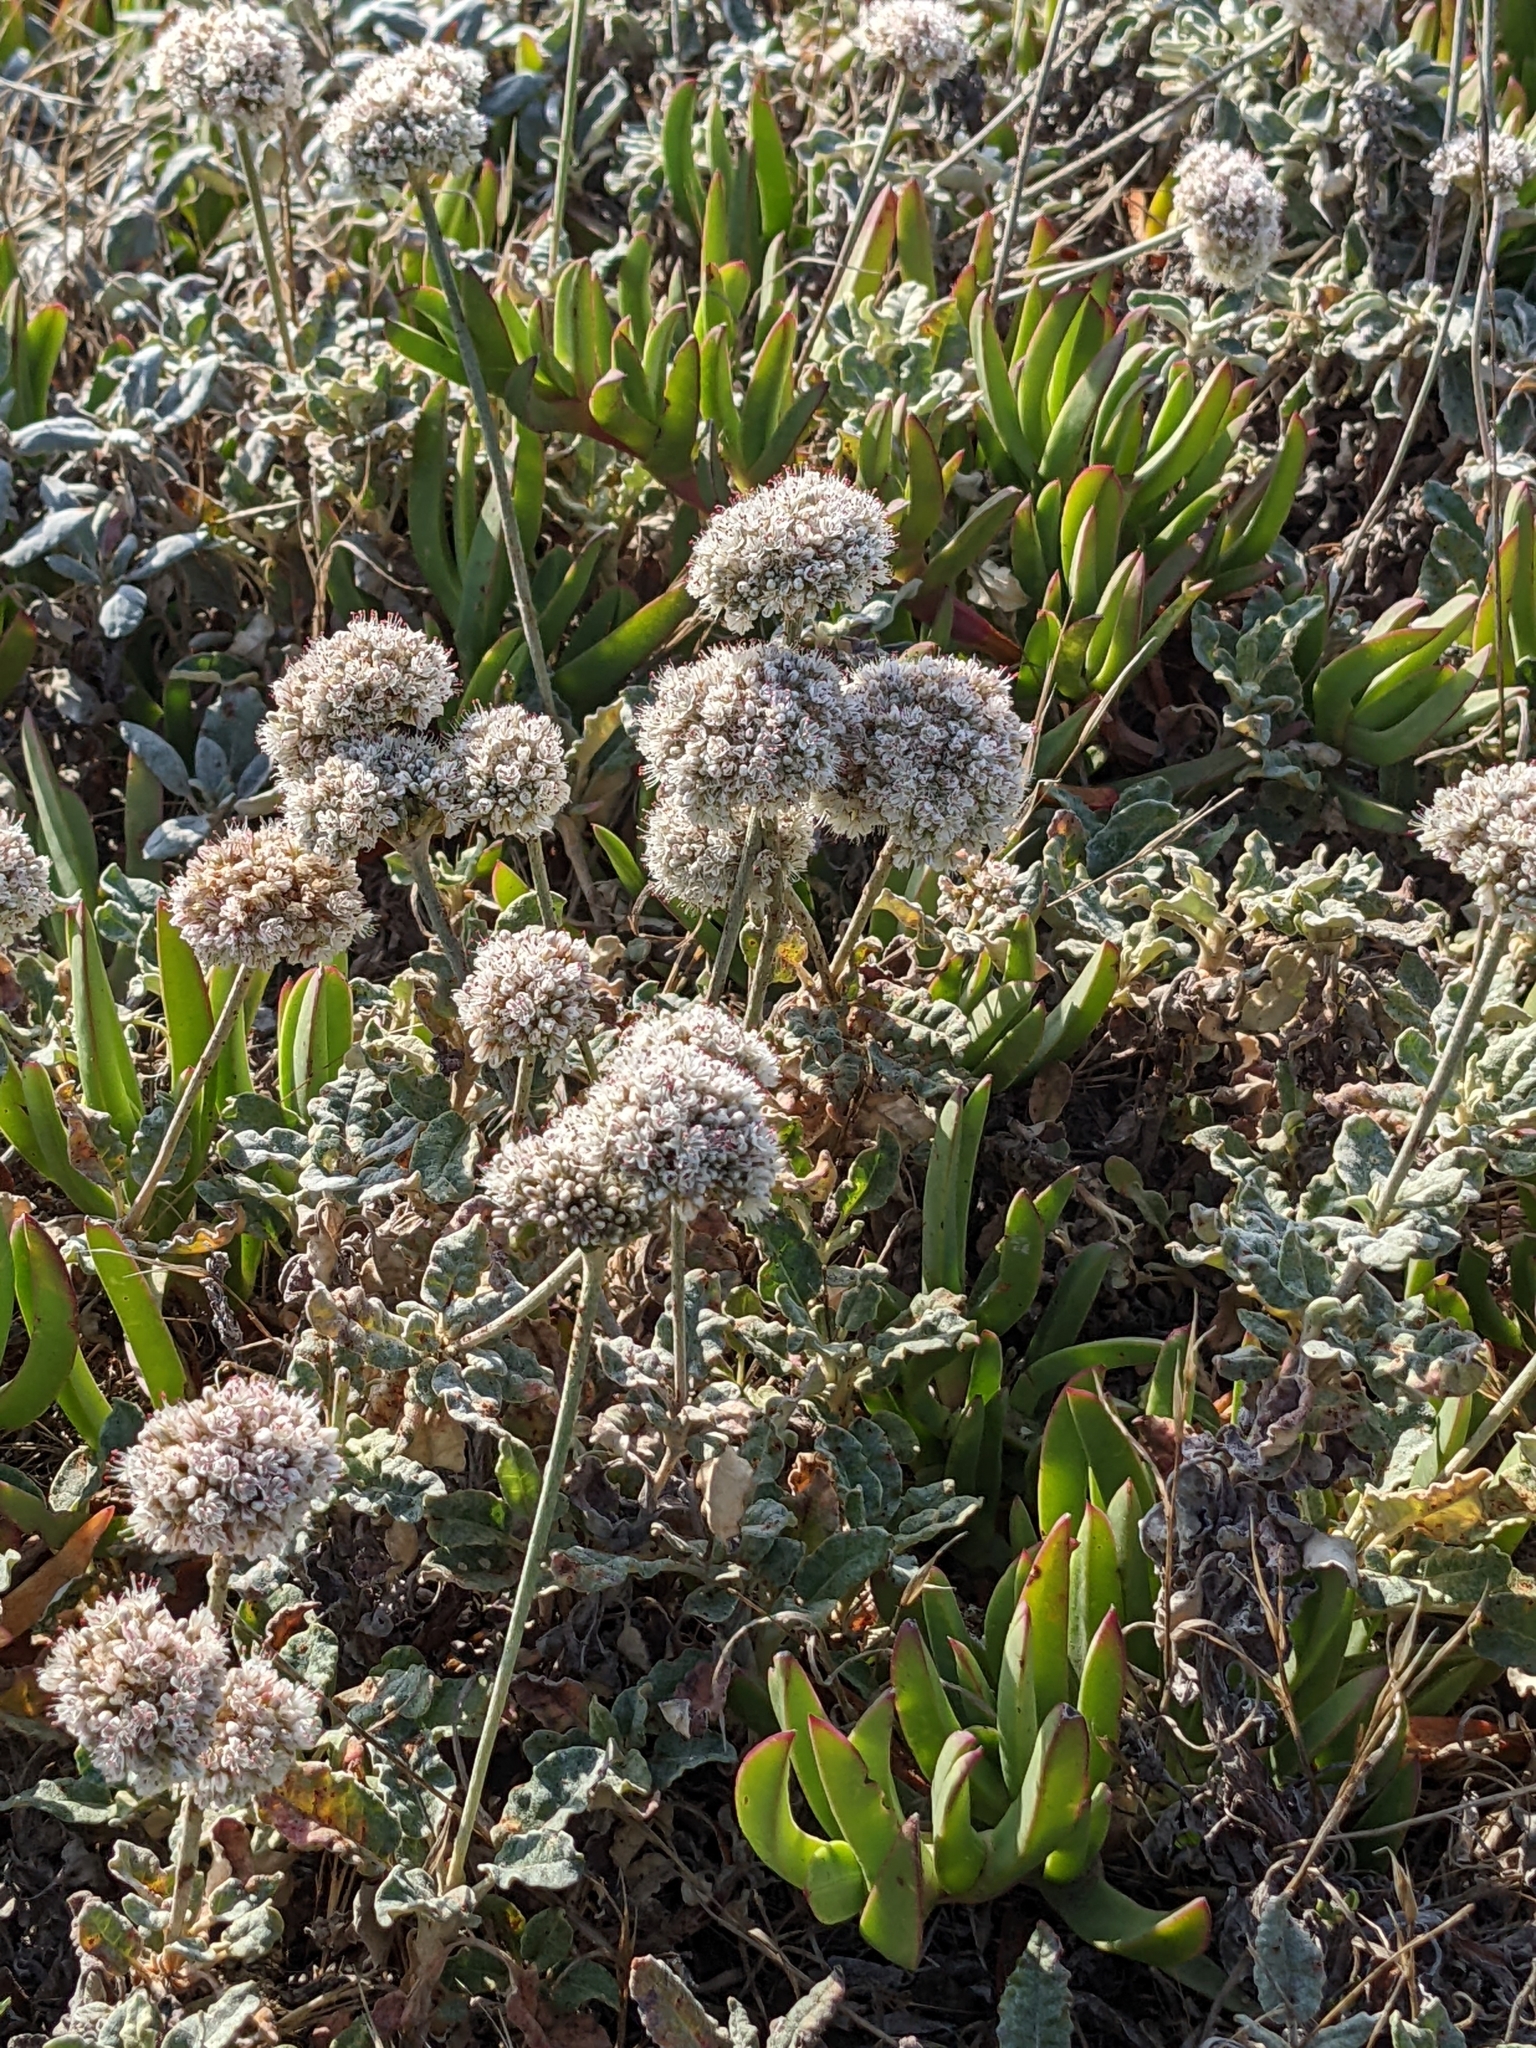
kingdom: Plantae
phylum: Tracheophyta
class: Magnoliopsida
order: Caryophyllales
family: Polygonaceae
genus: Eriogonum
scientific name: Eriogonum latifolium
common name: Seaside wild buckwheat
